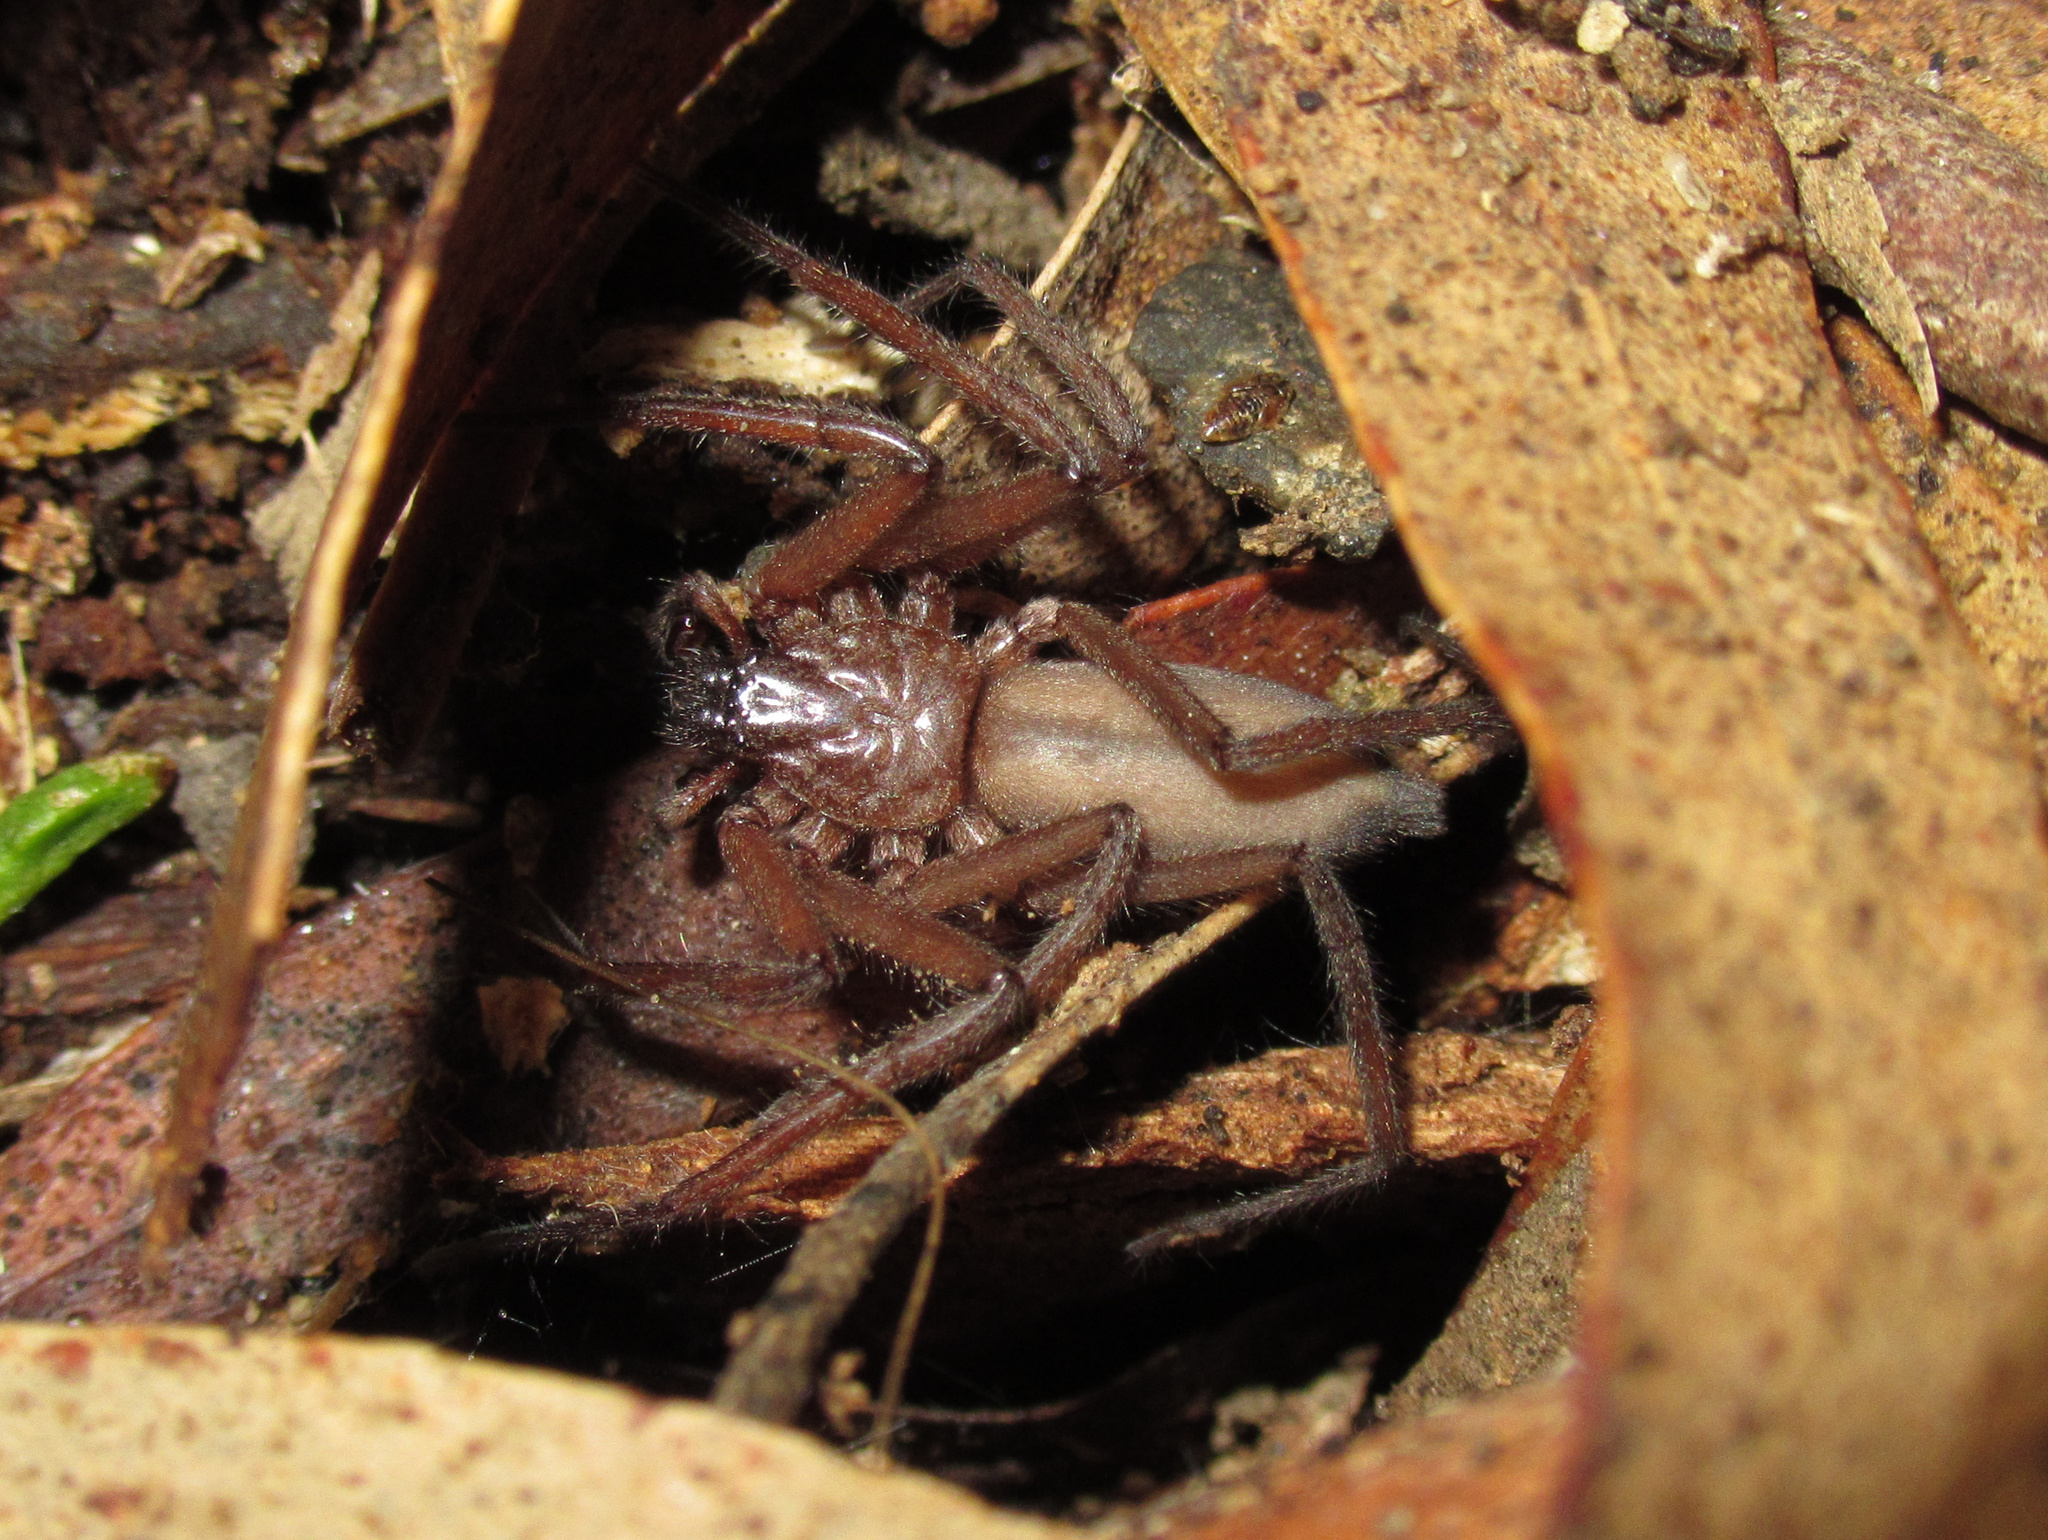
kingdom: Animalia
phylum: Arthropoda
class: Arachnida
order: Araneae
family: Trochanteriidae
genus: Hemicloea
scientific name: Hemicloea rogenhoferi
